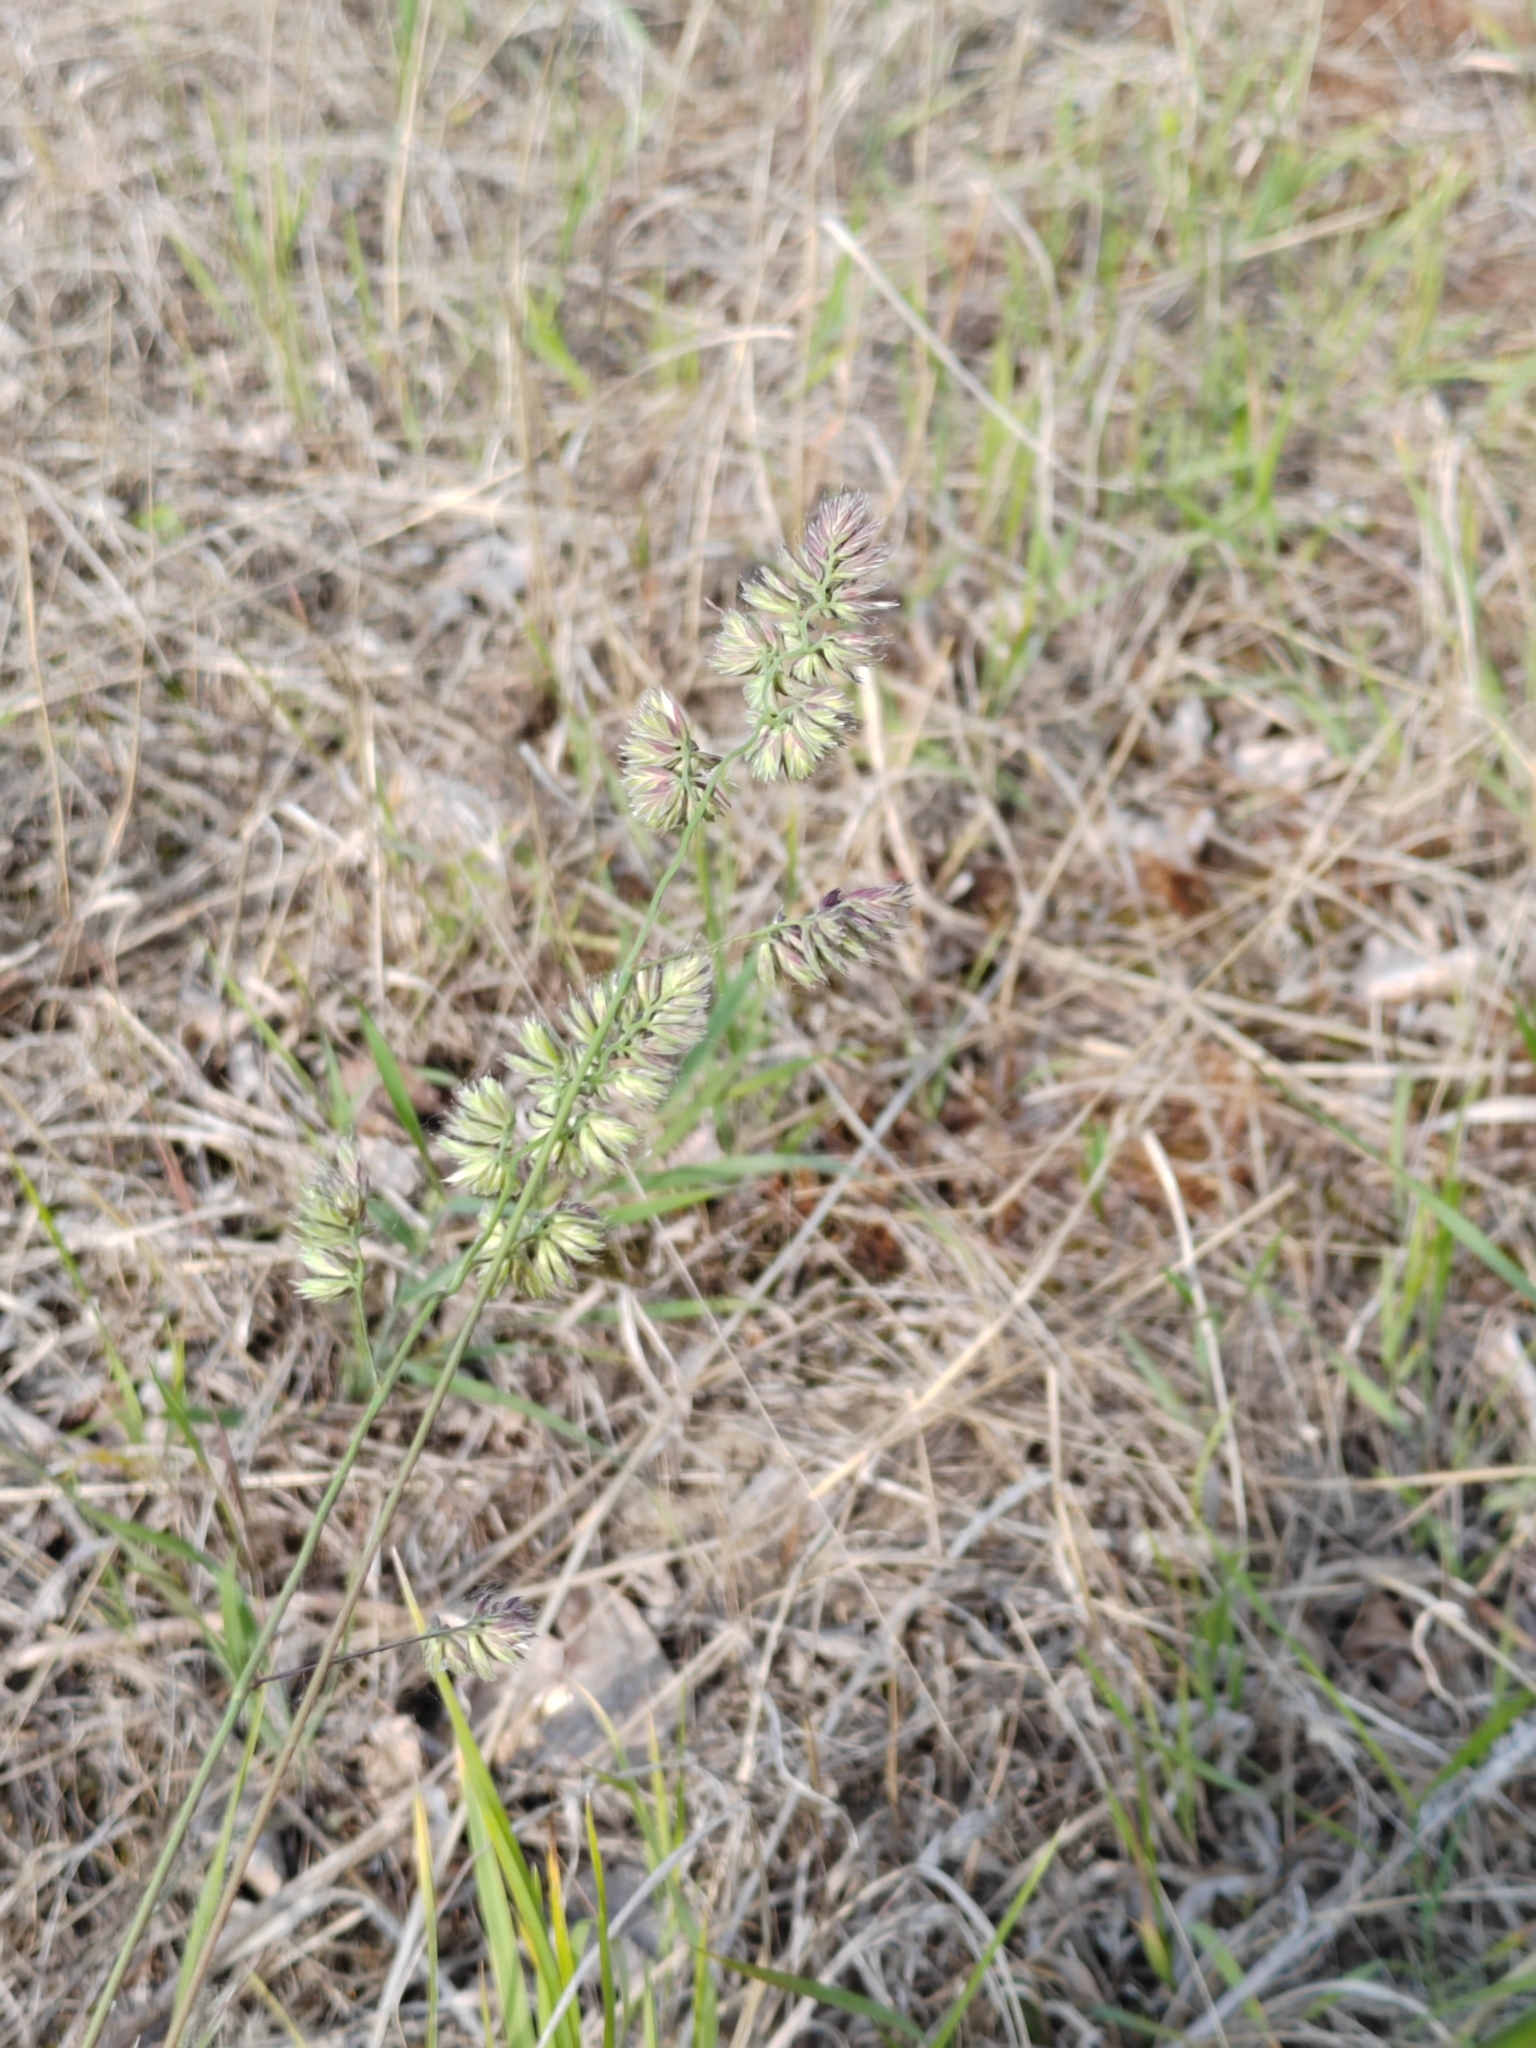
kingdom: Plantae
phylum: Tracheophyta
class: Liliopsida
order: Poales
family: Poaceae
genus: Dactylis
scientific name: Dactylis glomerata
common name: Orchardgrass
